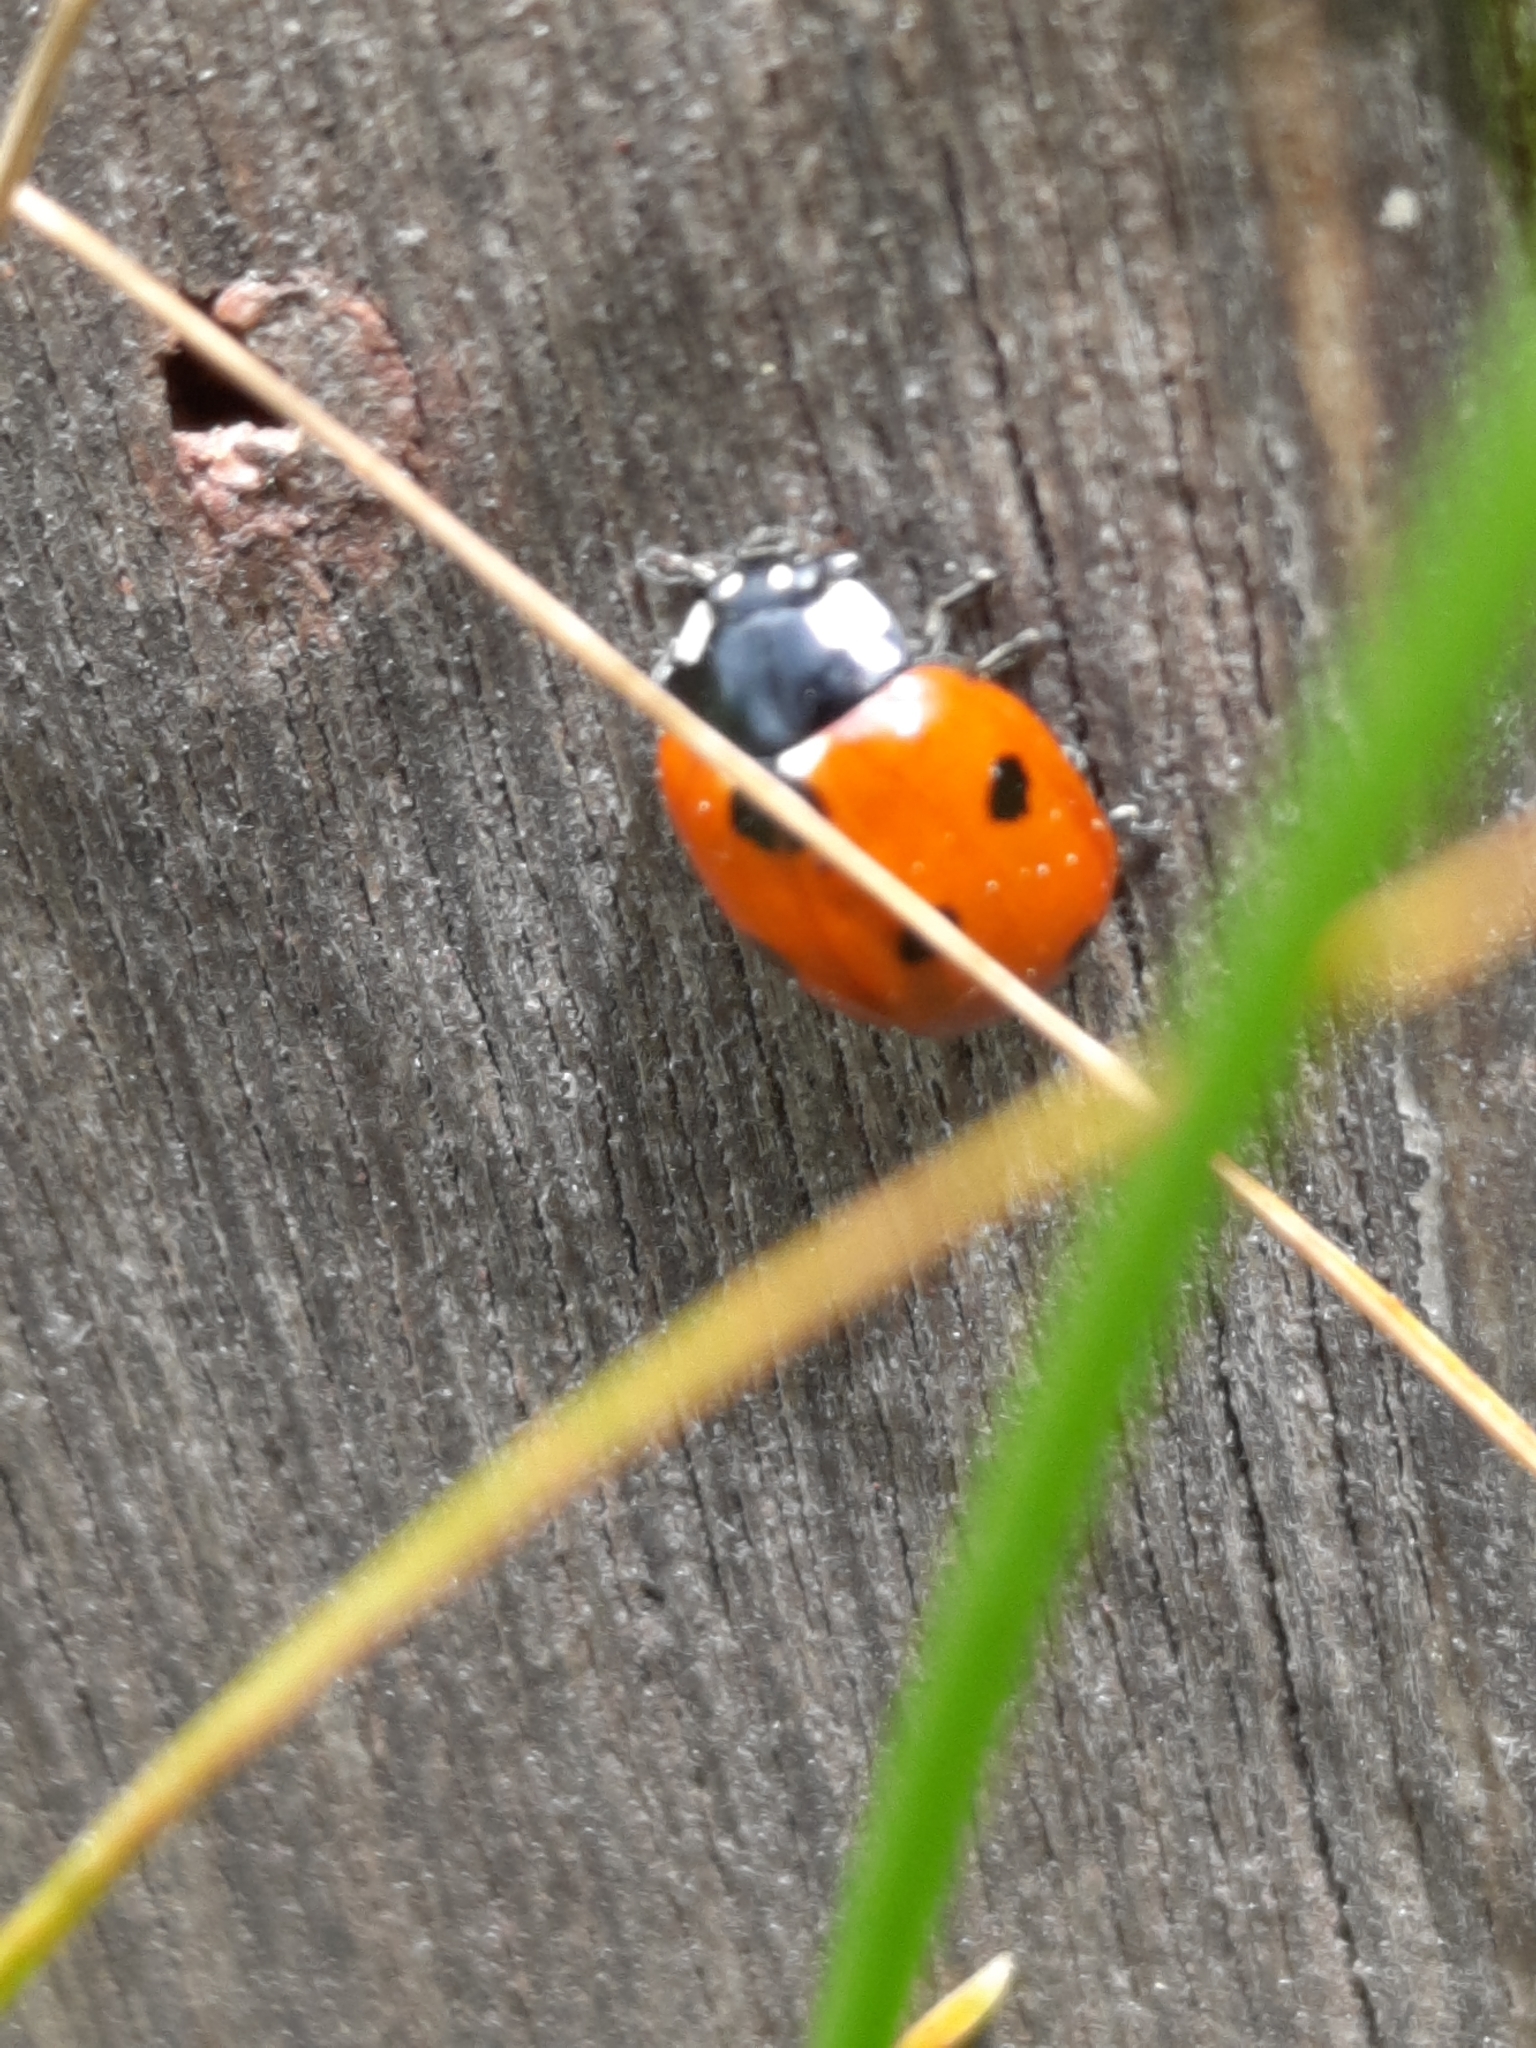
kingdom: Animalia
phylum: Arthropoda
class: Insecta
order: Coleoptera
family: Coccinellidae
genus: Coccinella
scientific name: Coccinella septempunctata
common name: Sevenspotted lady beetle
